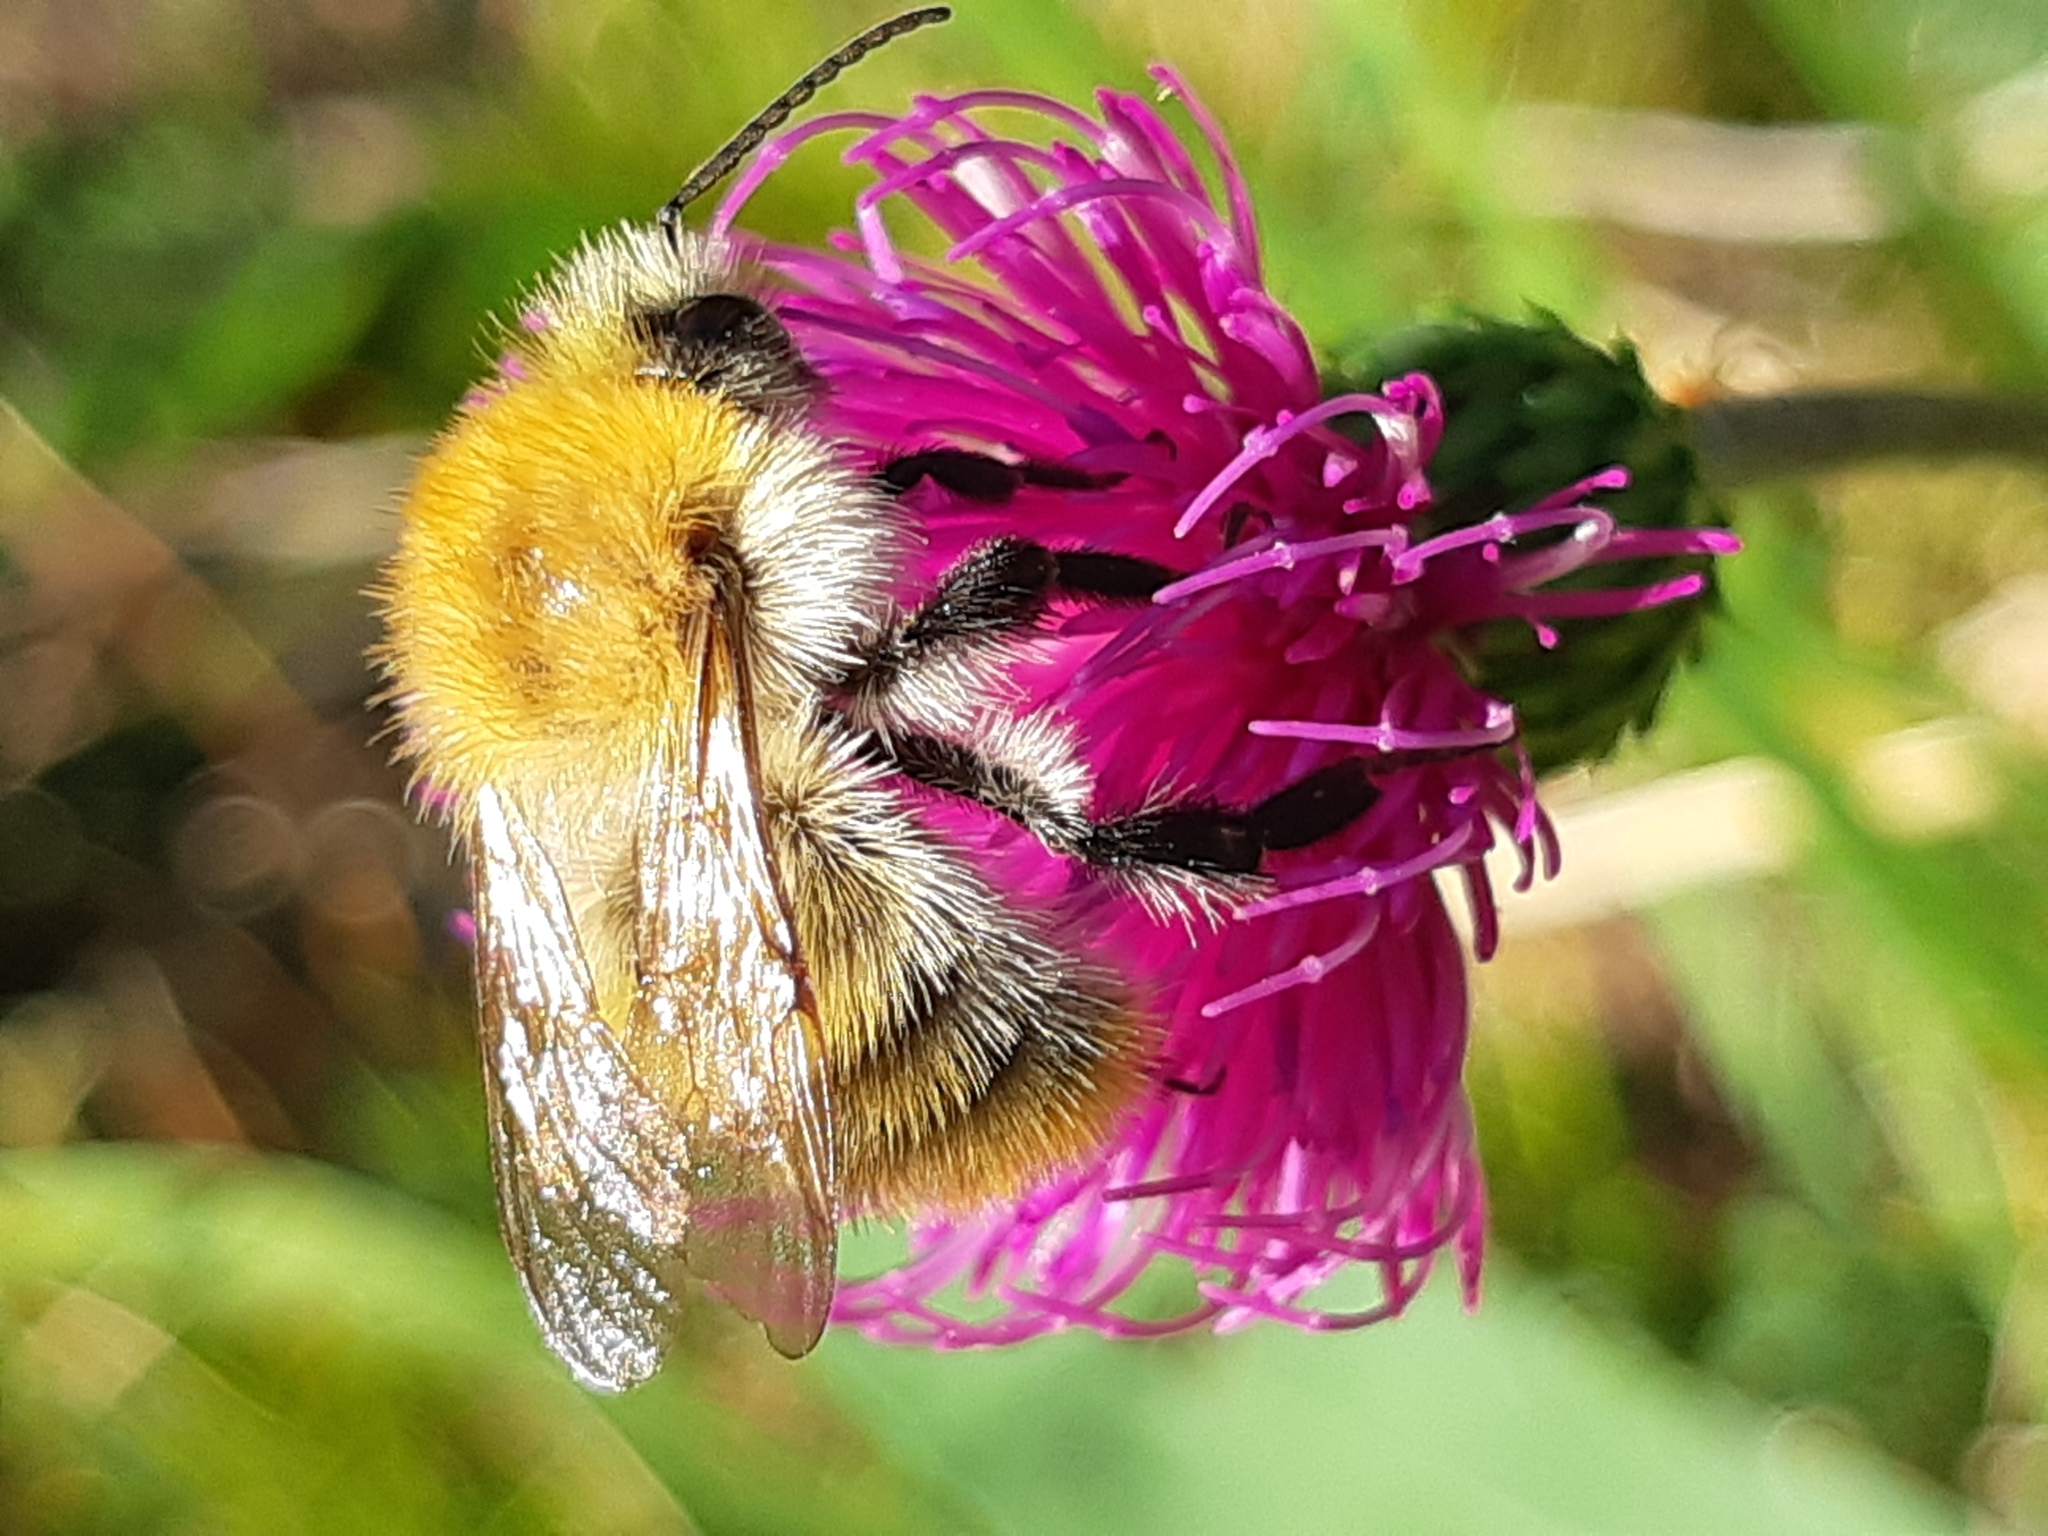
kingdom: Animalia
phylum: Arthropoda
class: Insecta
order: Hymenoptera
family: Apidae
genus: Bombus
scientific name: Bombus pascuorum
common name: Common carder bee
